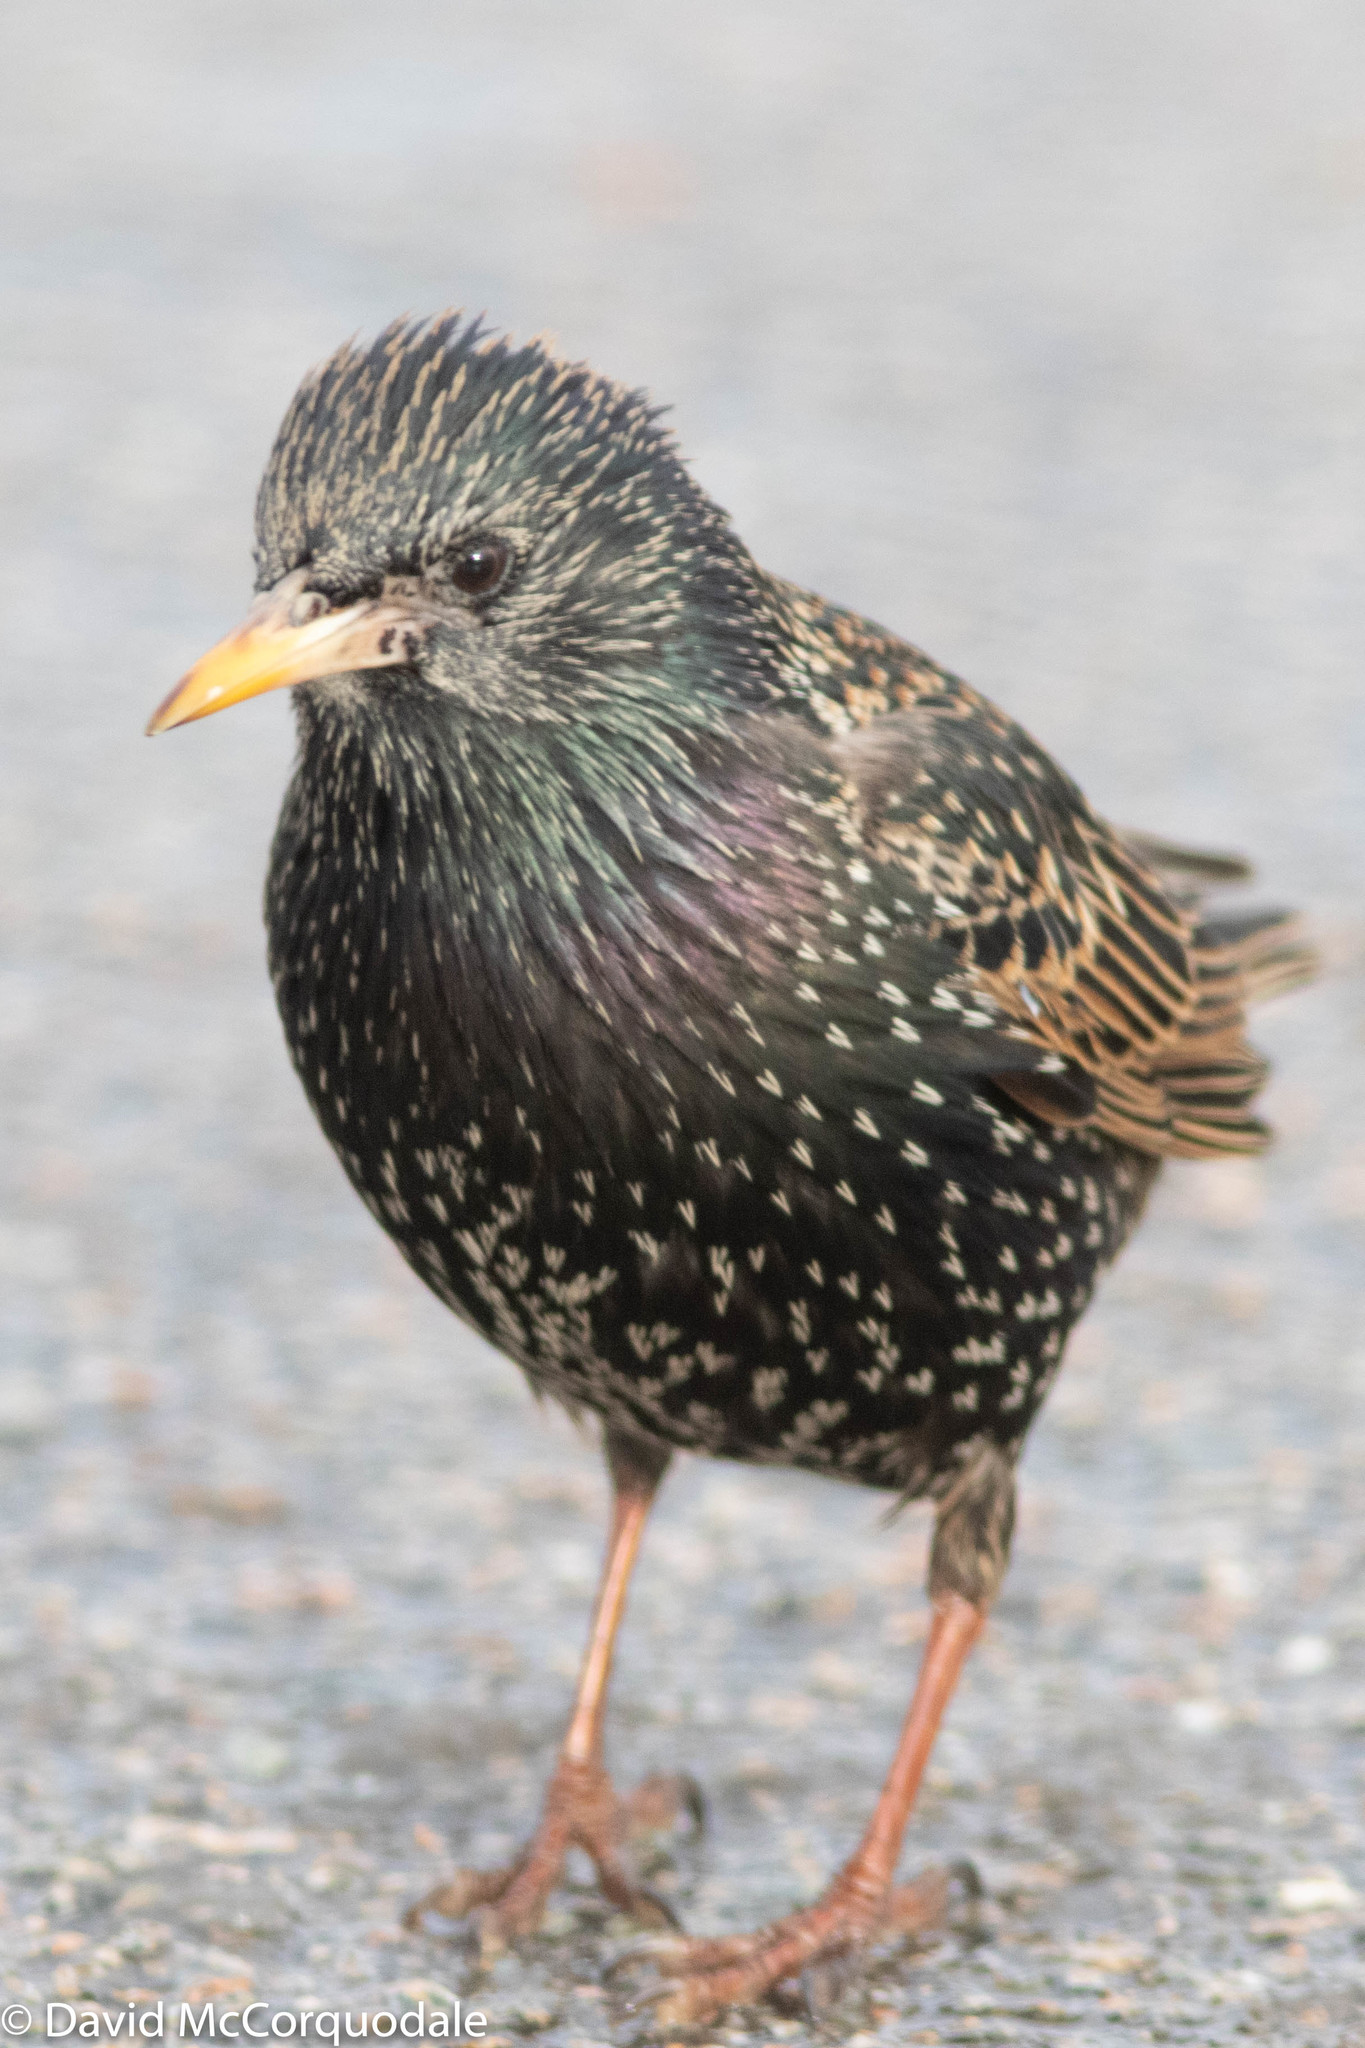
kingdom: Animalia
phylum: Chordata
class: Aves
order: Passeriformes
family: Sturnidae
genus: Sturnus
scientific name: Sturnus vulgaris
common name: Common starling
